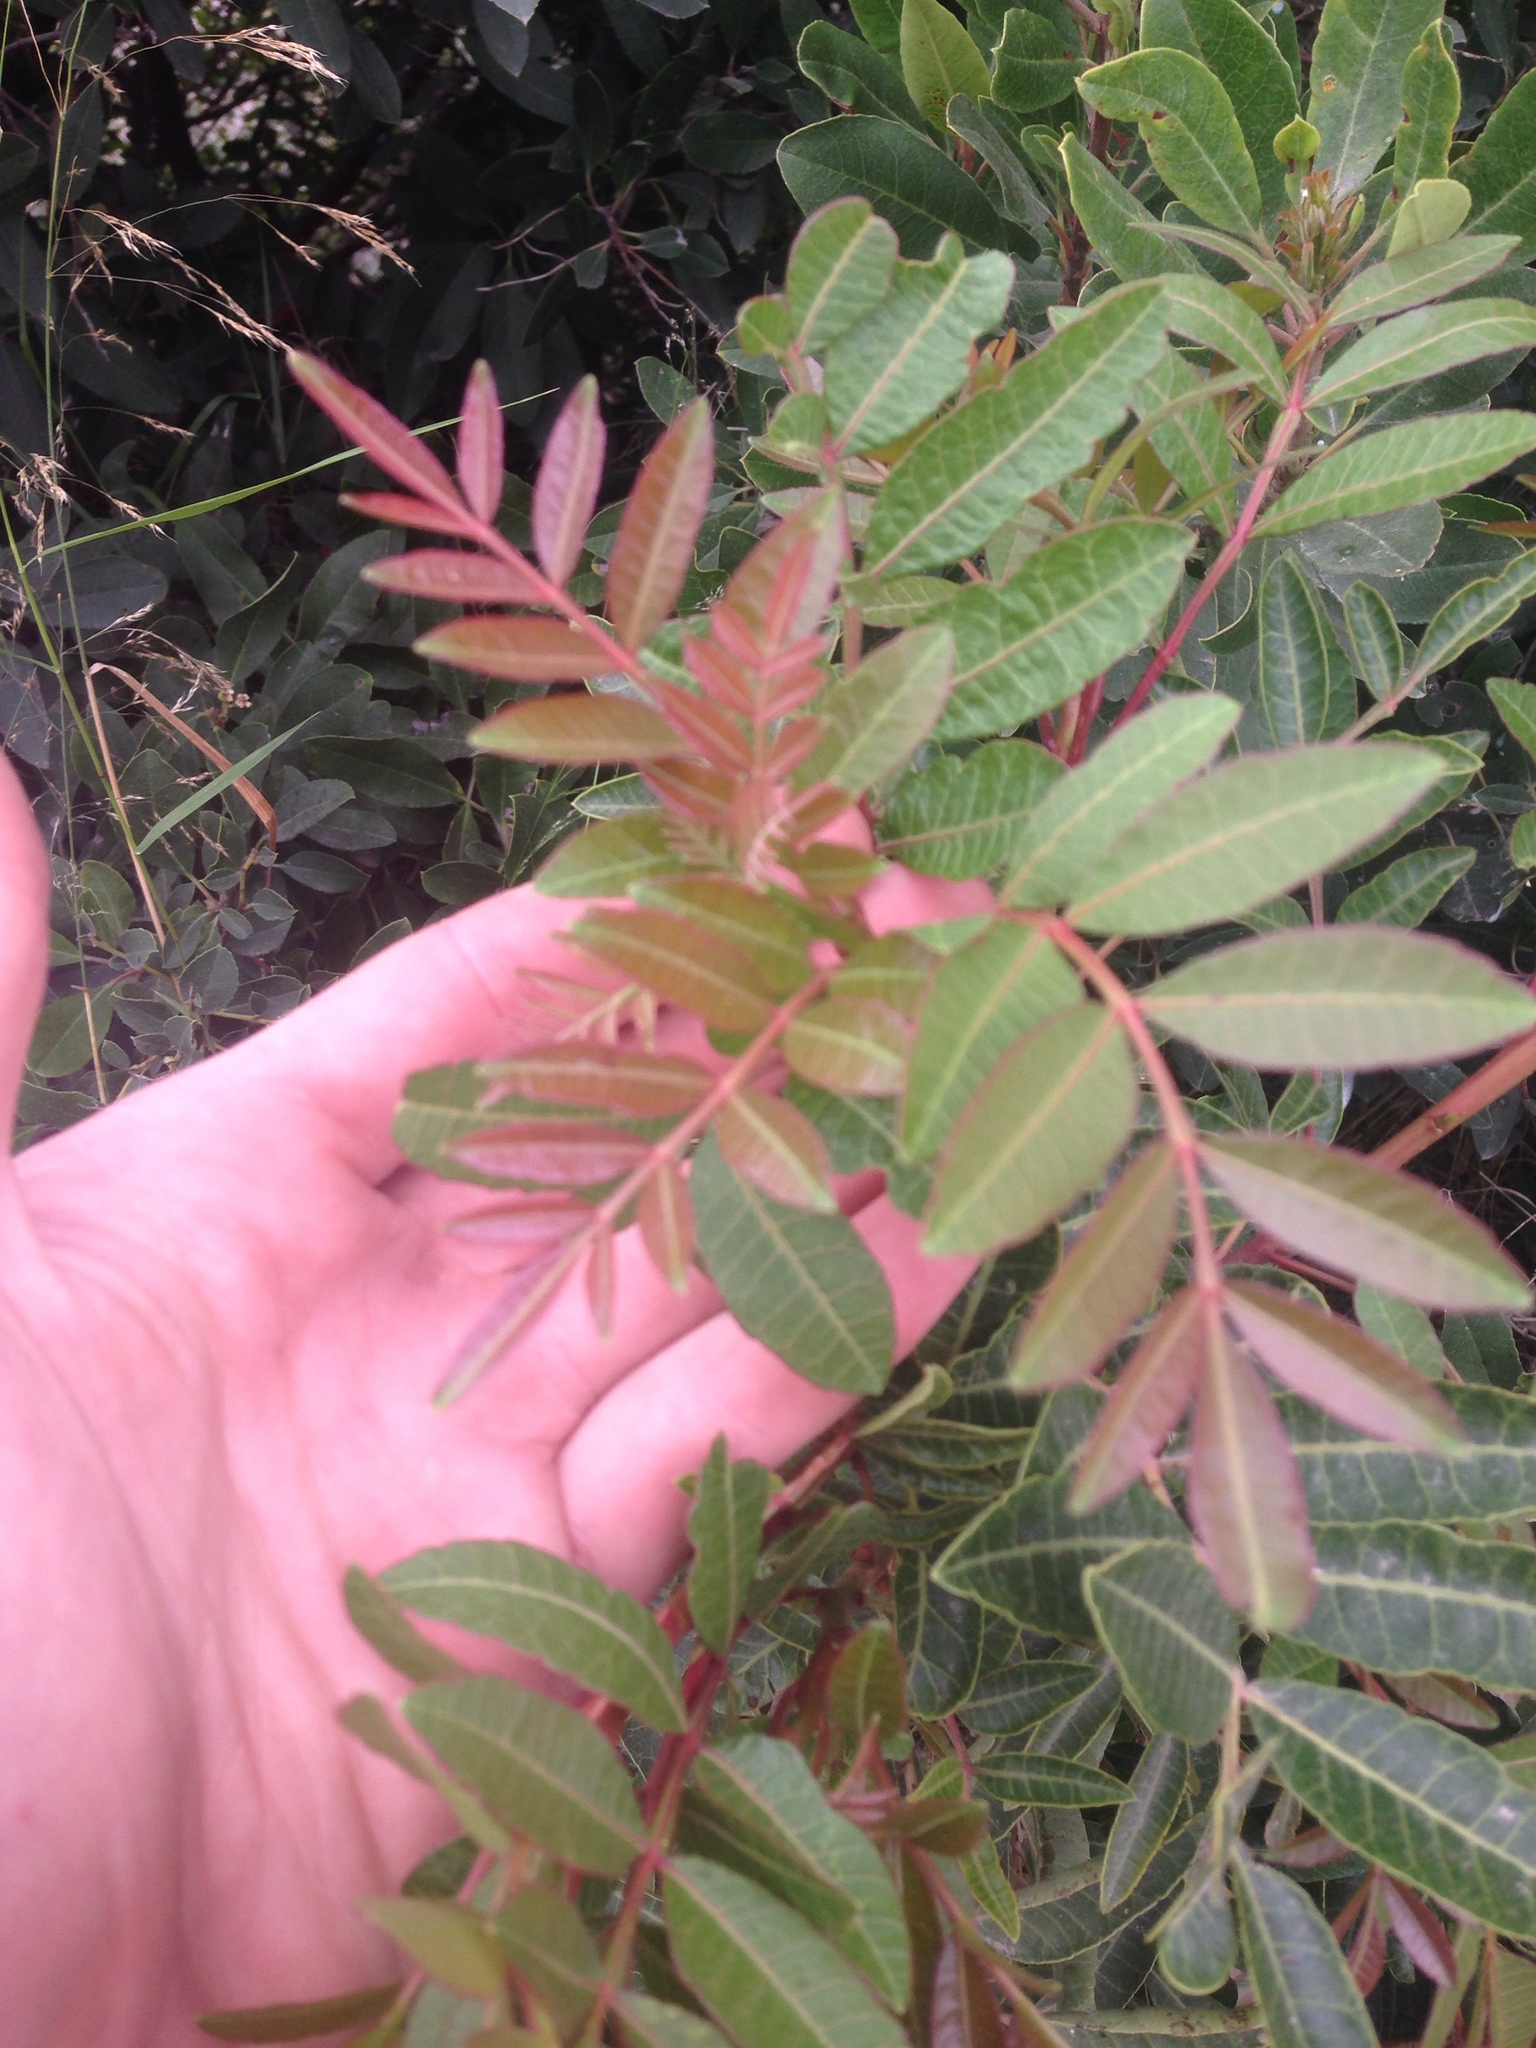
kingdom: Plantae
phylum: Tracheophyta
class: Magnoliopsida
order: Sapindales
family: Anacardiaceae
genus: Schinus
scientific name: Schinus terebinthifolia
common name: Brazilian peppertree
